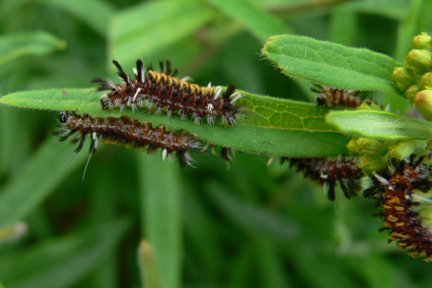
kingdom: Animalia
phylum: Arthropoda
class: Insecta
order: Lepidoptera
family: Erebidae
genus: Euchaetes
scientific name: Euchaetes egle
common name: Milkweed tussock moth
